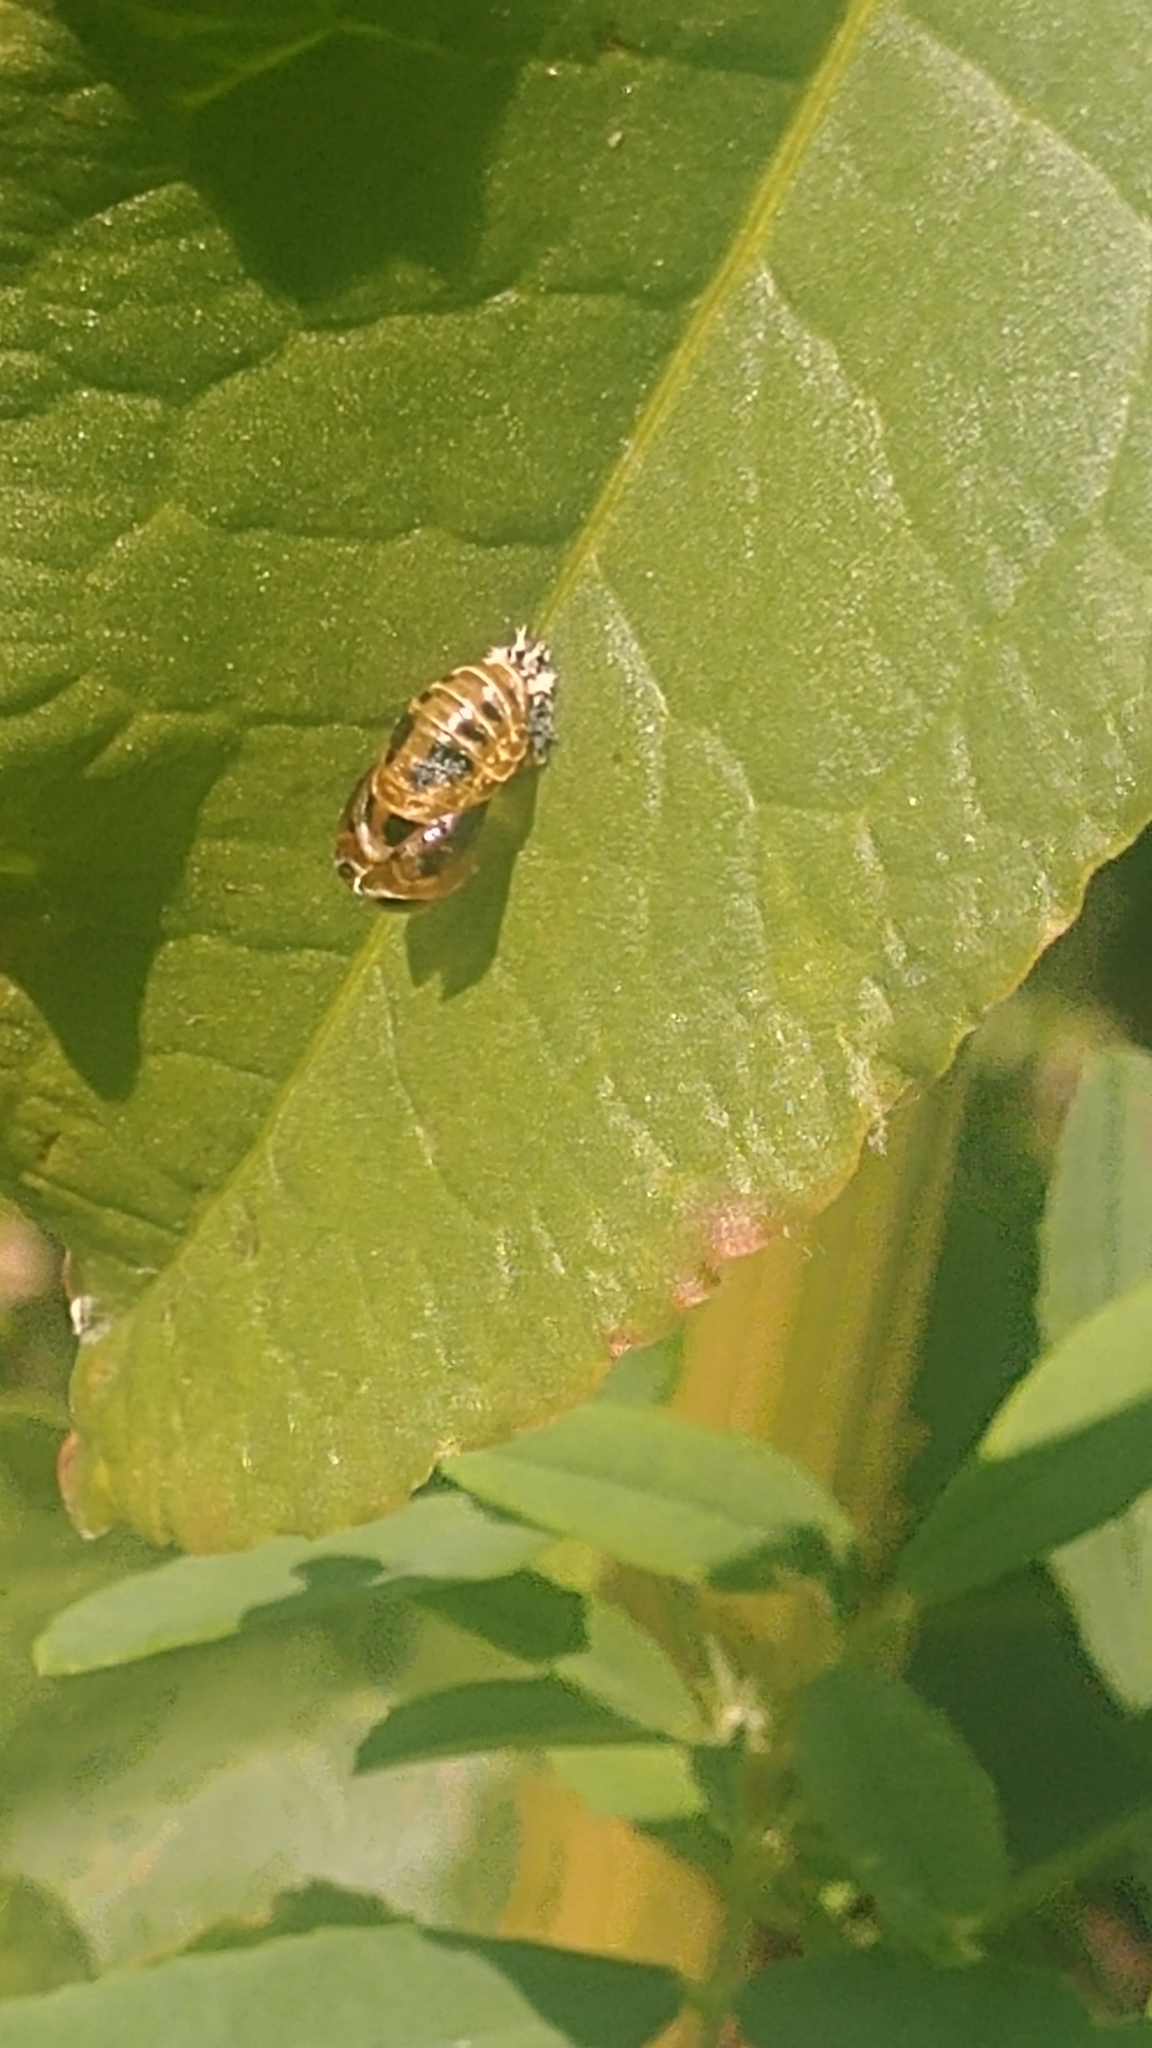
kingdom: Animalia
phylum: Arthropoda
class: Insecta
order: Coleoptera
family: Coccinellidae
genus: Harmonia
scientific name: Harmonia axyridis
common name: Harlequin ladybird
